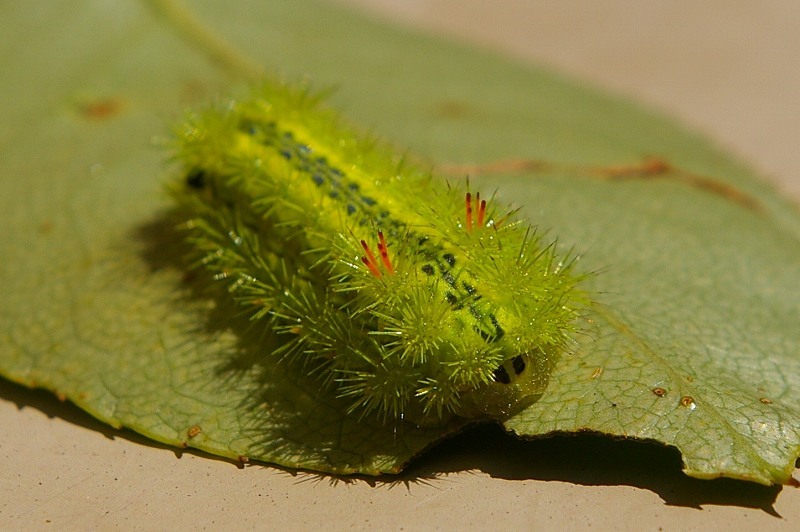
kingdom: Animalia
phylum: Arthropoda
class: Insecta
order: Lepidoptera
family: Limacodidae
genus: Parasa
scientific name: Parasa lepida
